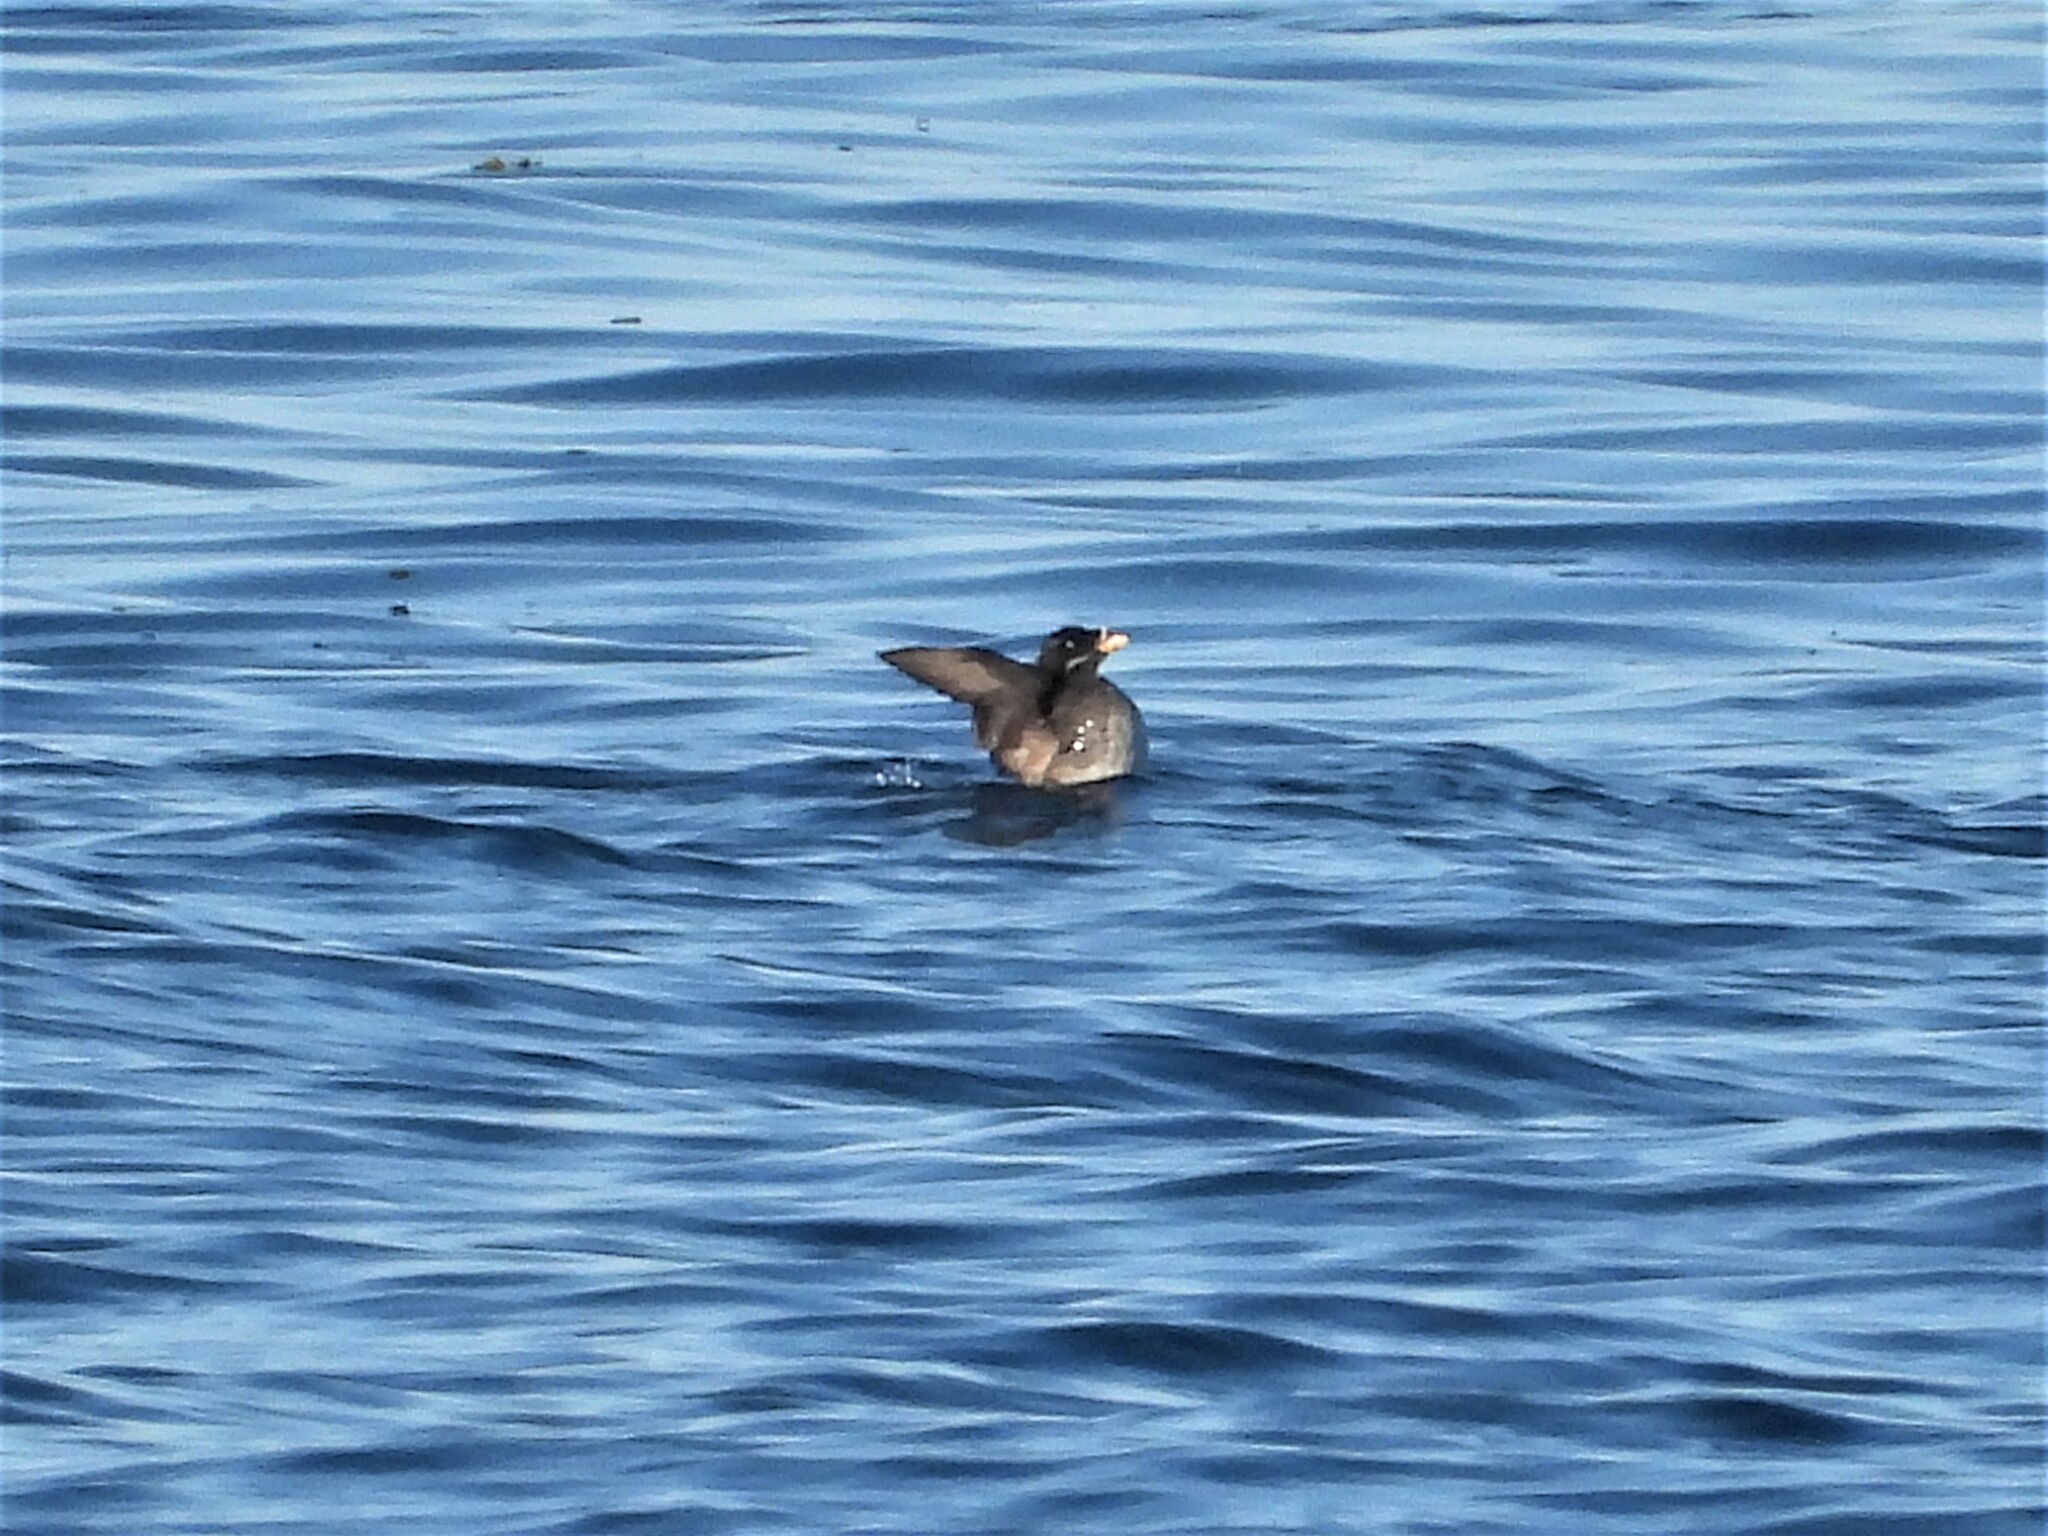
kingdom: Animalia
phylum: Chordata
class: Aves
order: Charadriiformes
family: Alcidae
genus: Cerorhinca
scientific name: Cerorhinca monocerata
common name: Rhinoceros auklet
